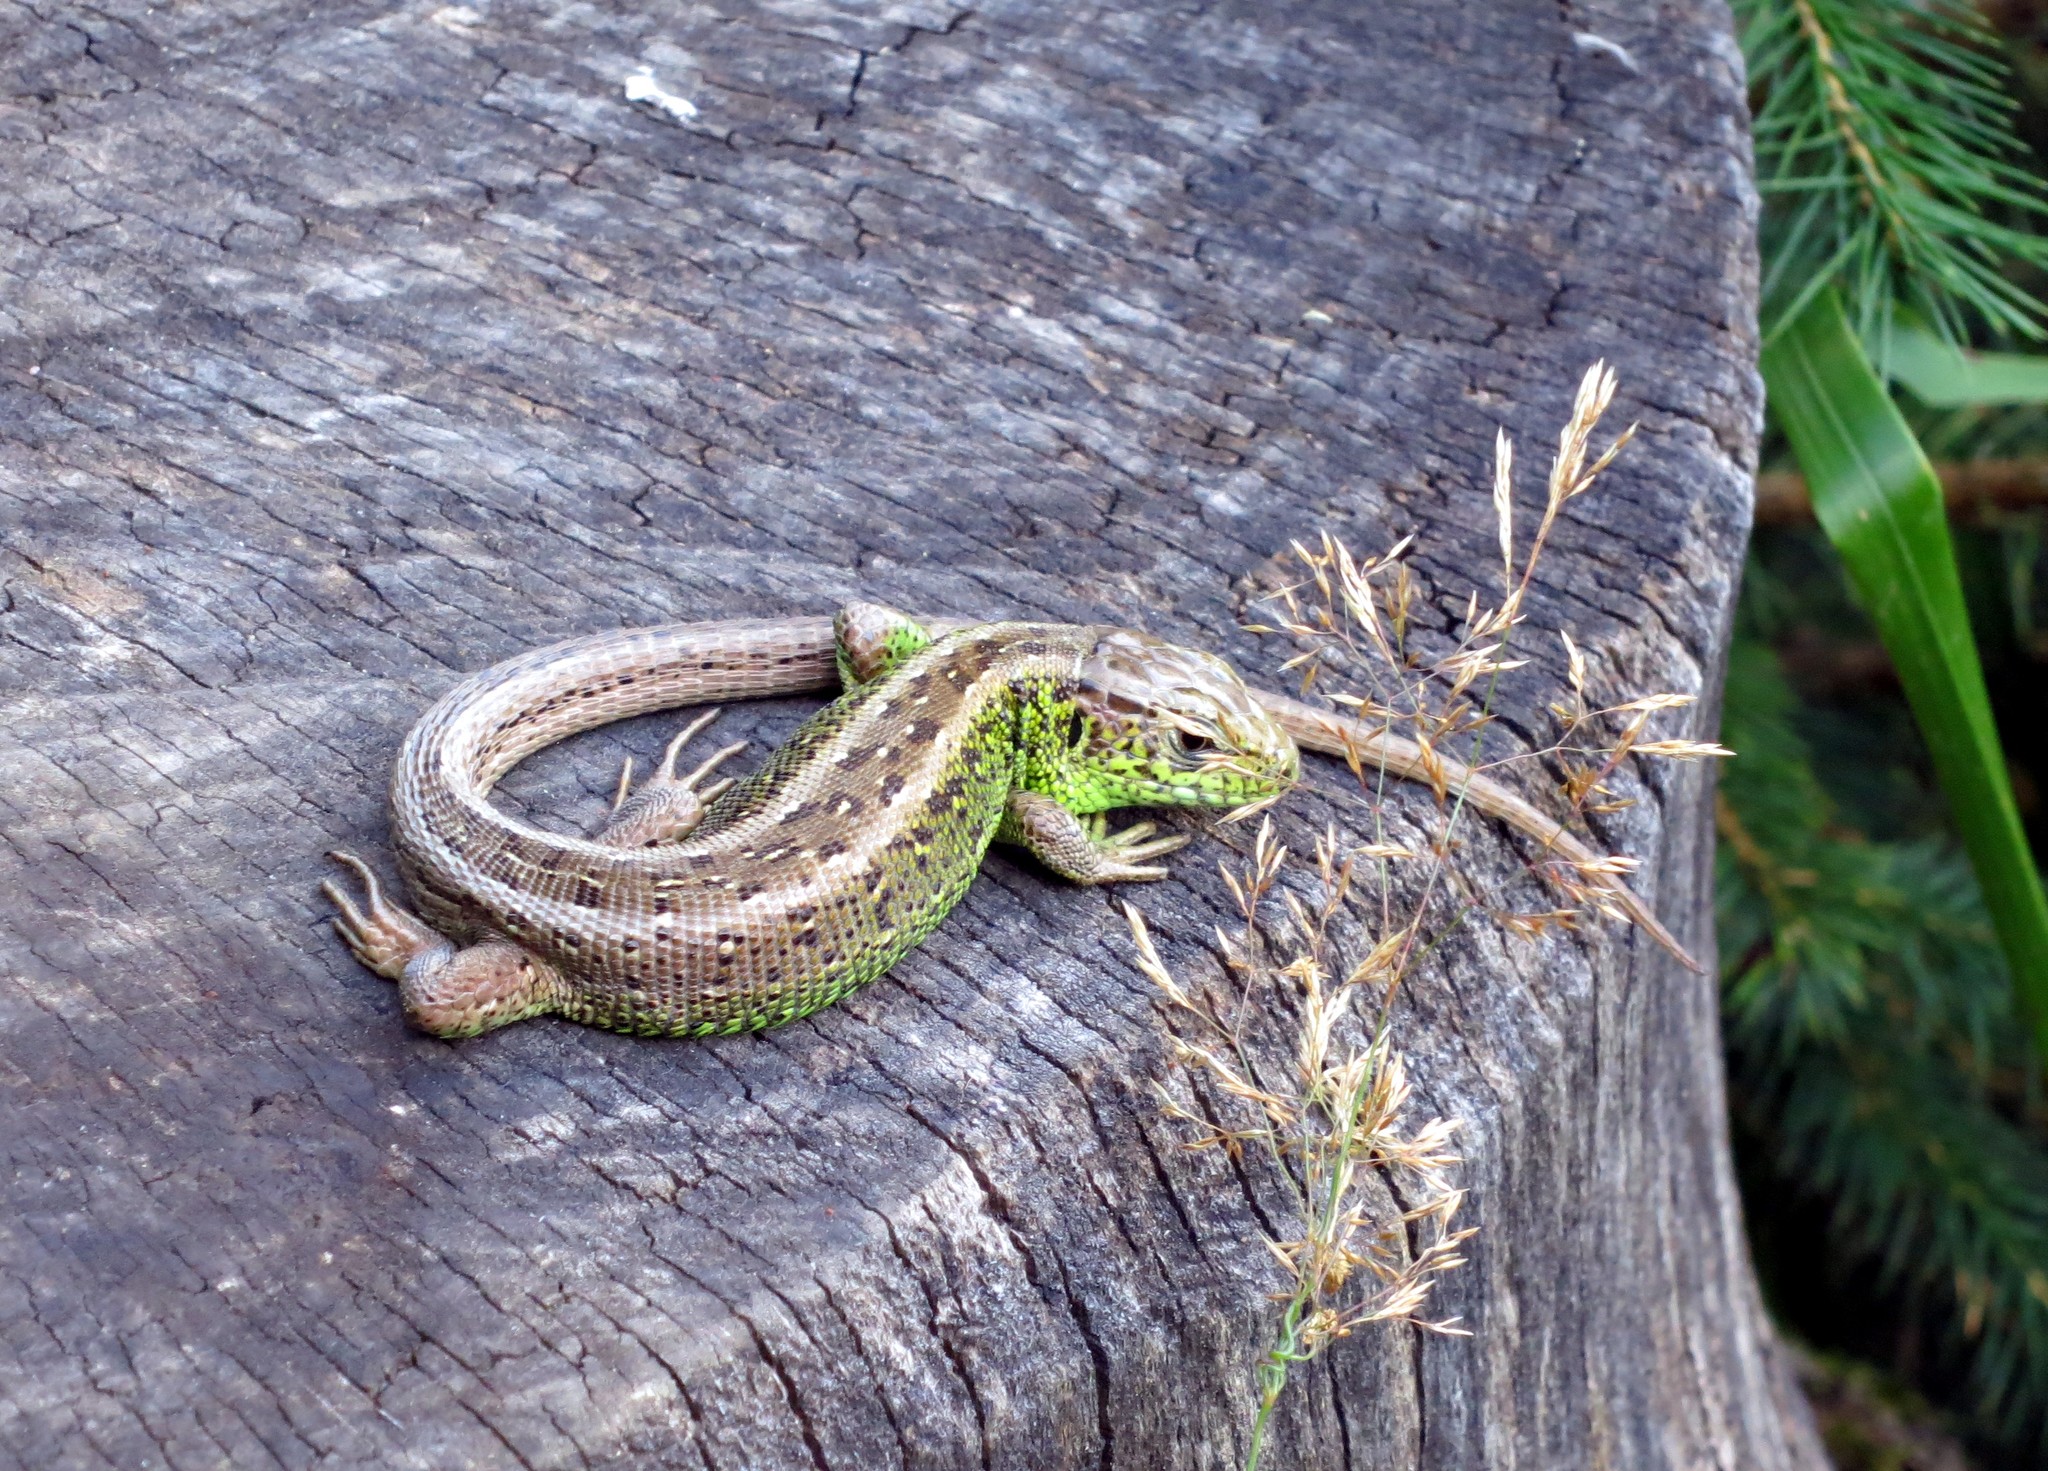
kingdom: Animalia
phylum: Chordata
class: Squamata
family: Lacertidae
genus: Lacerta
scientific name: Lacerta agilis
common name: Sand lizard
